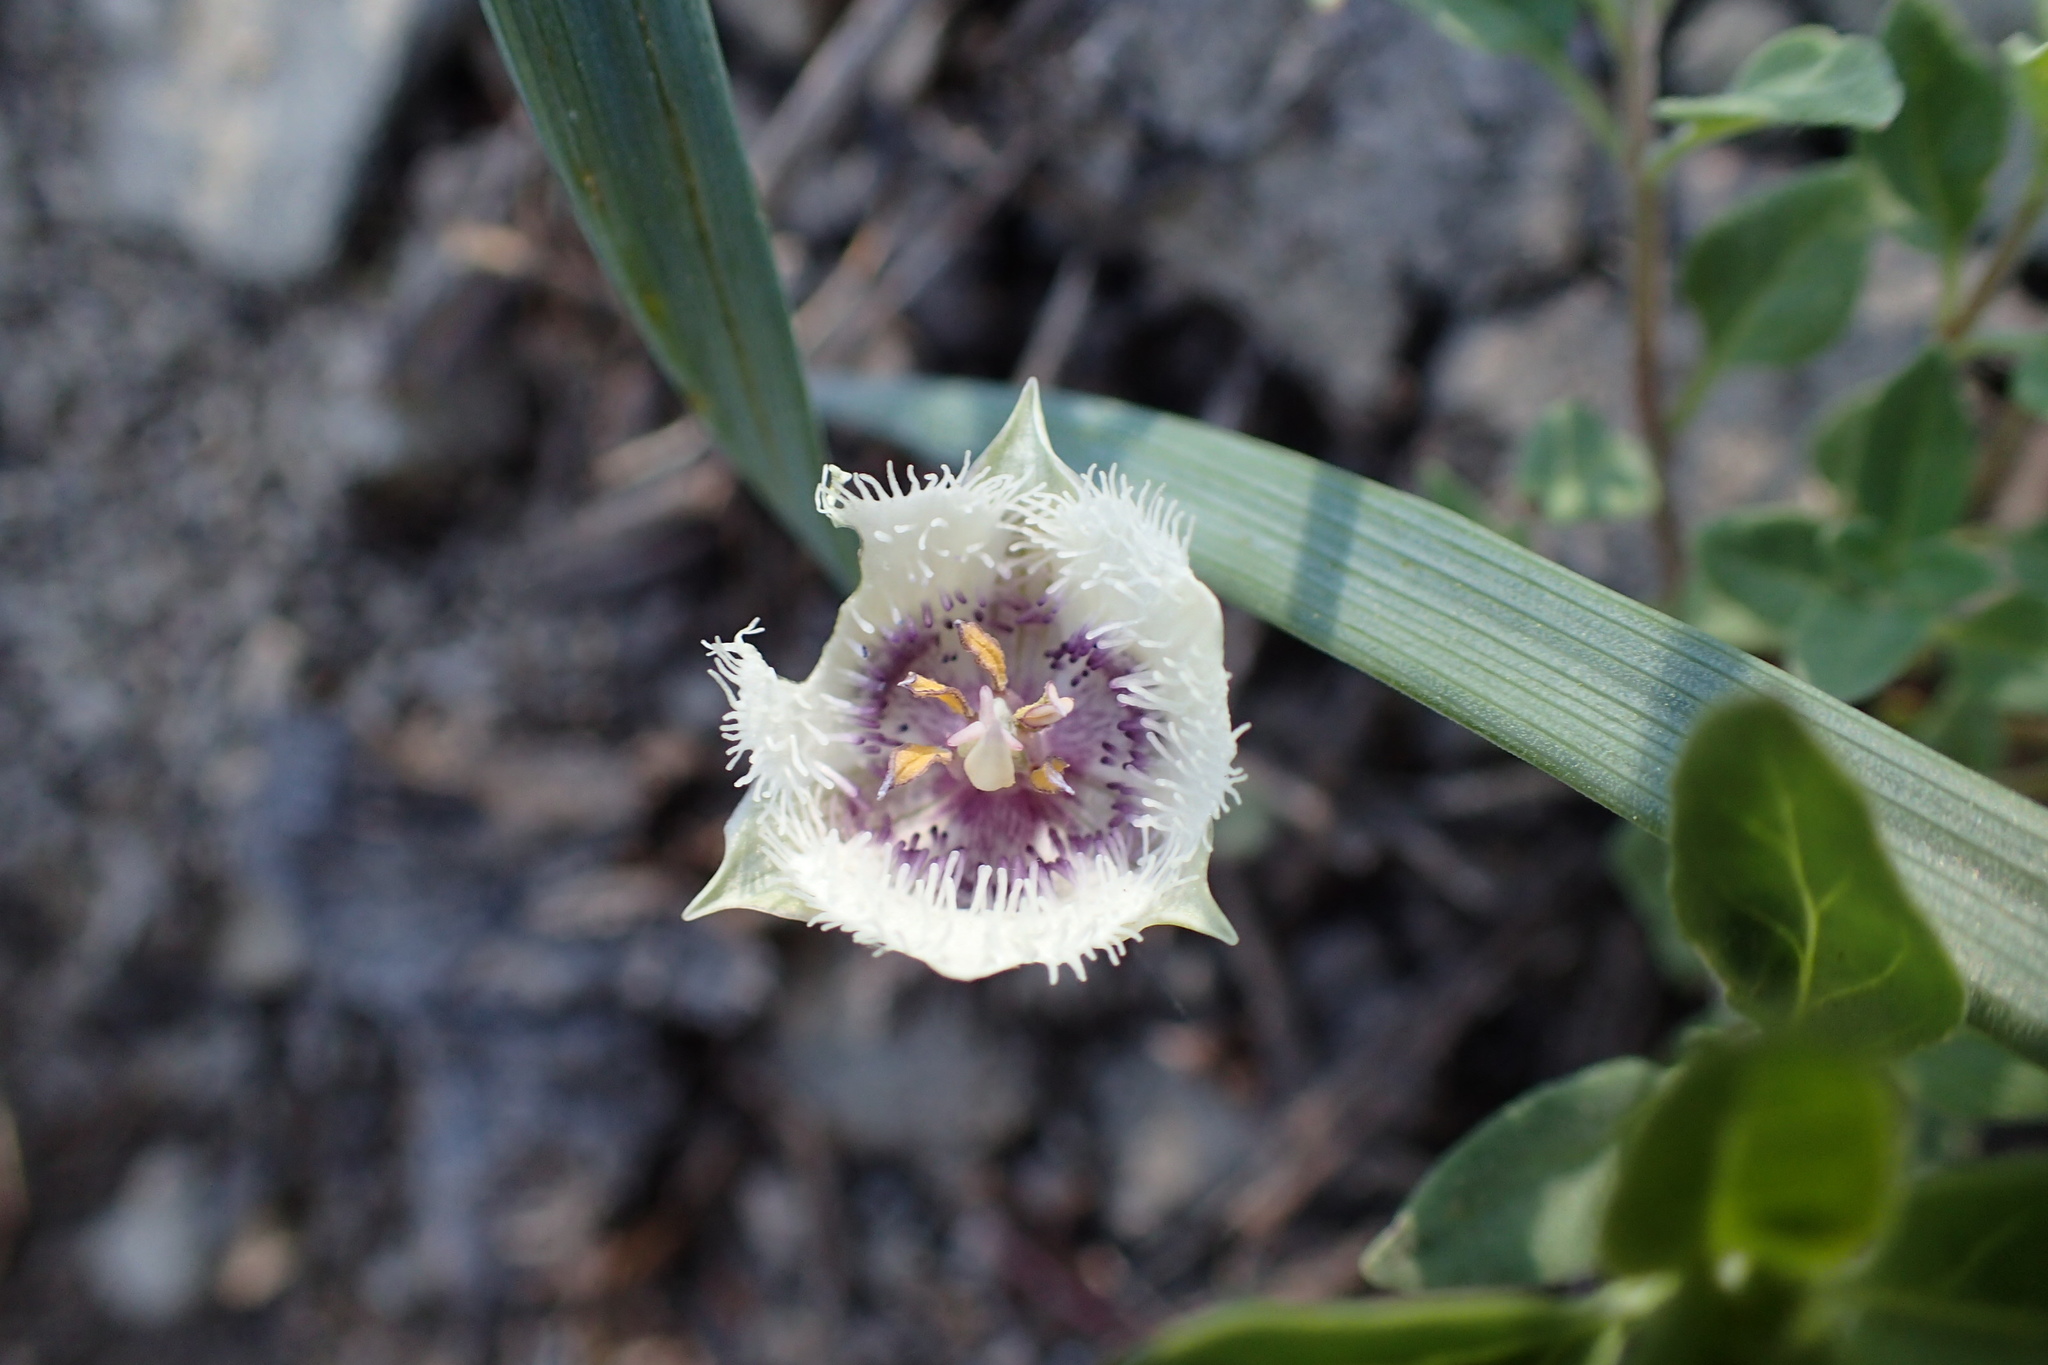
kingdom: Plantae
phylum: Tracheophyta
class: Liliopsida
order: Liliales
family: Liliaceae
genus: Calochortus
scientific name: Calochortus tolmiei
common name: Pussy-ears
